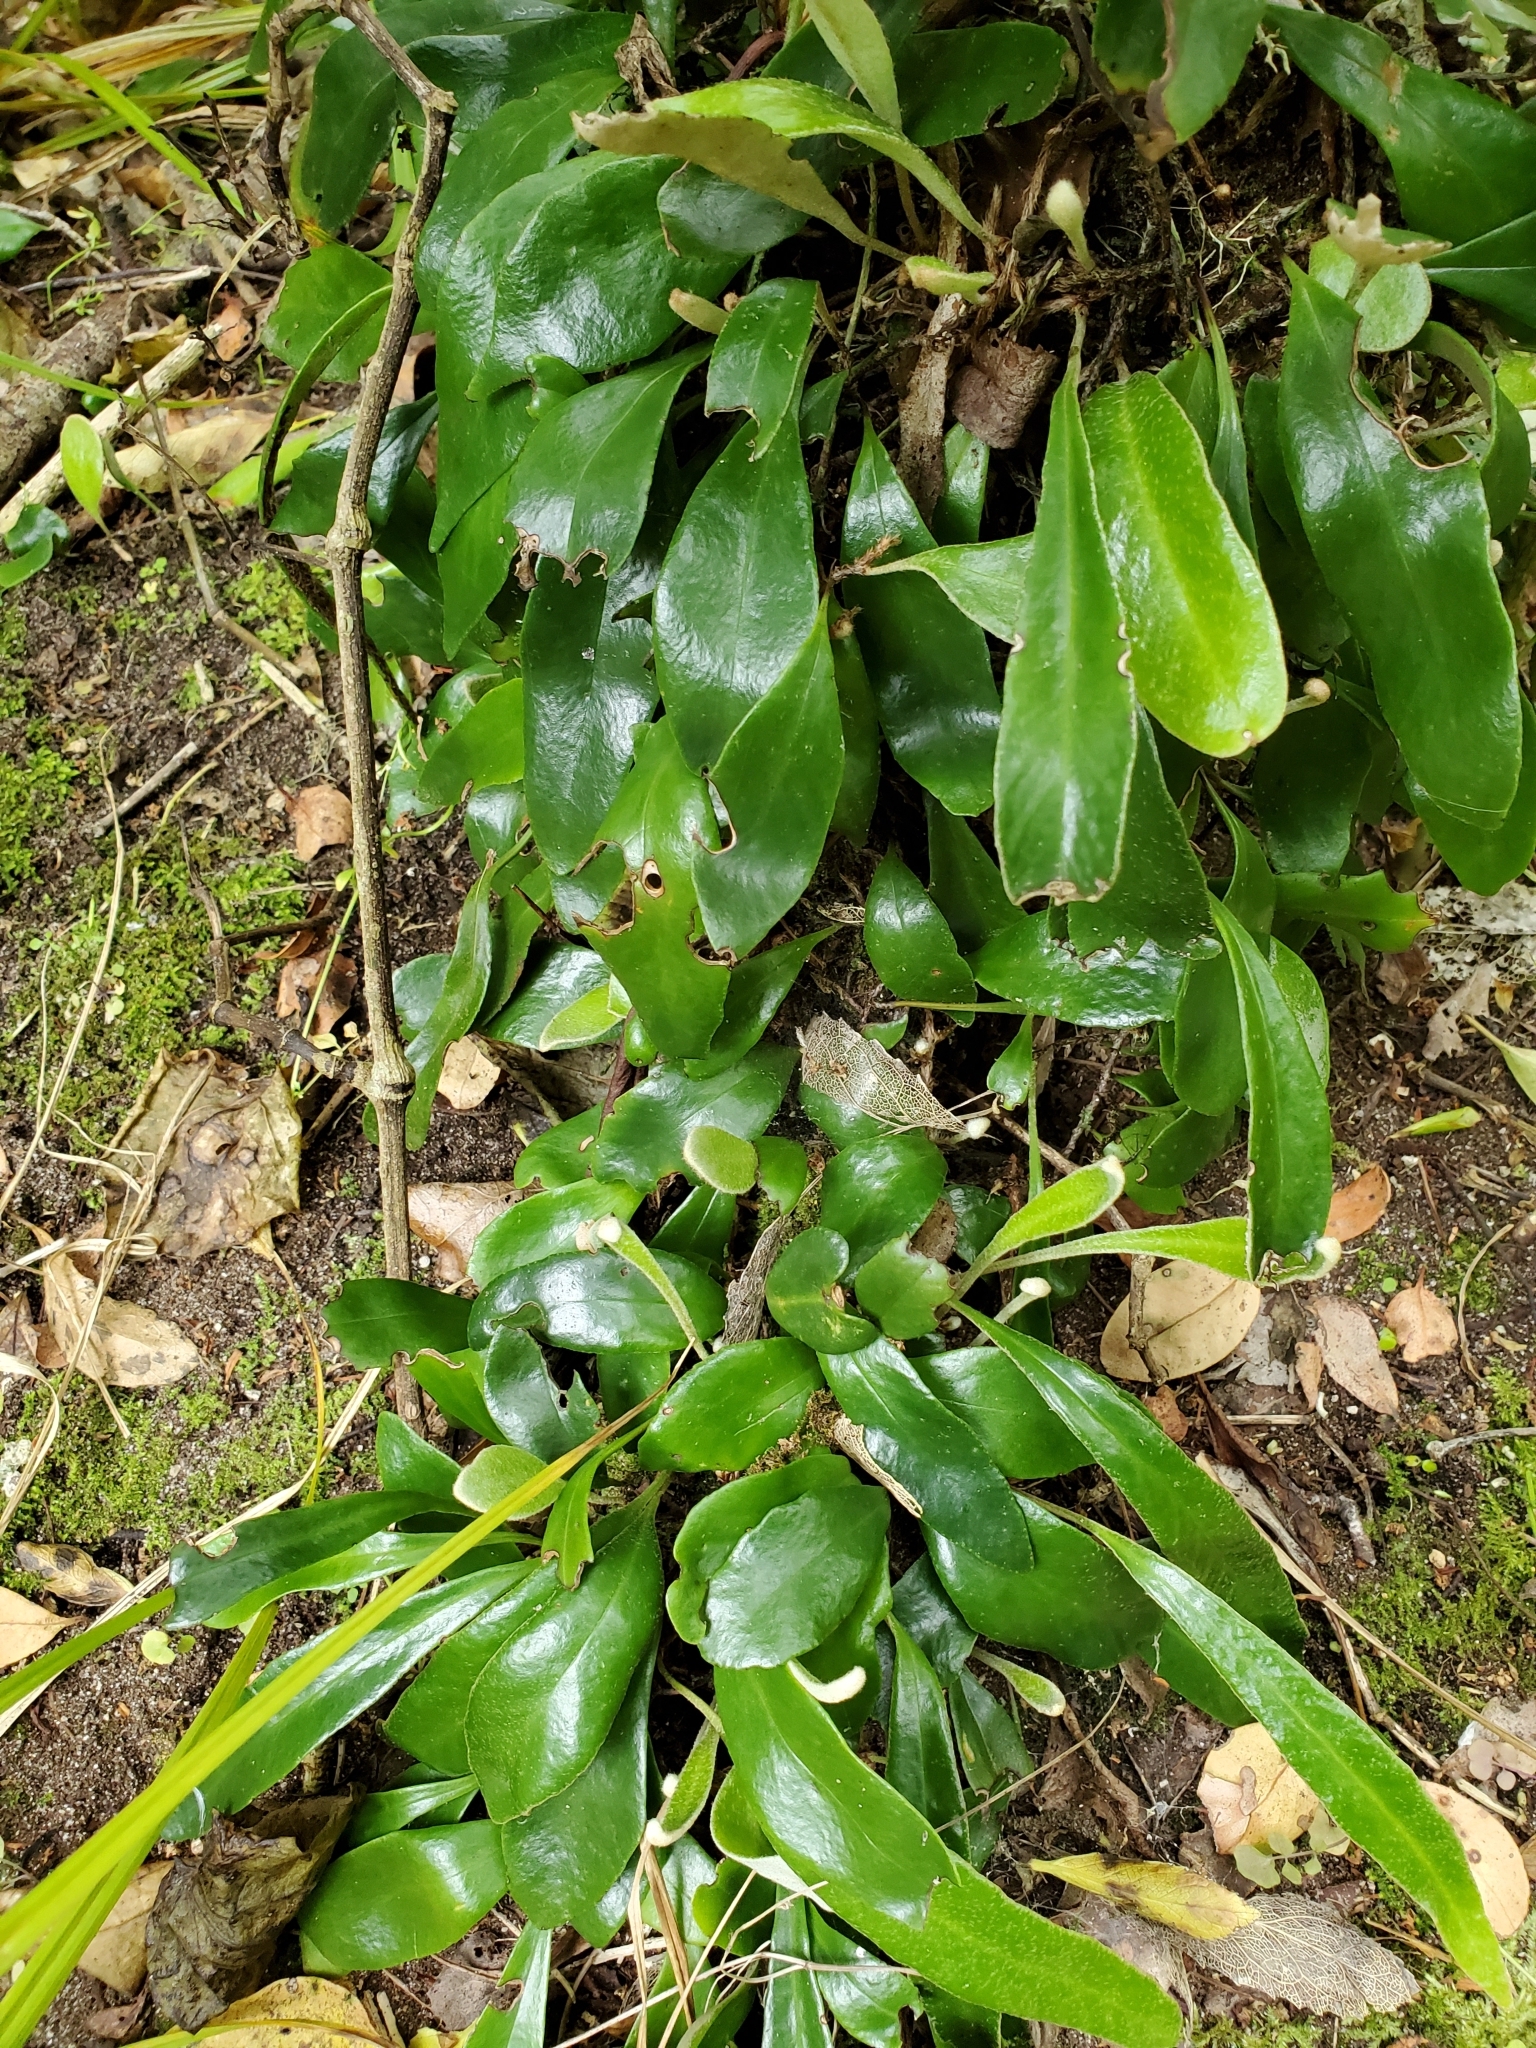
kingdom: Plantae
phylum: Tracheophyta
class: Polypodiopsida
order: Polypodiales
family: Polypodiaceae
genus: Pyrrosia
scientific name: Pyrrosia eleagnifolia
